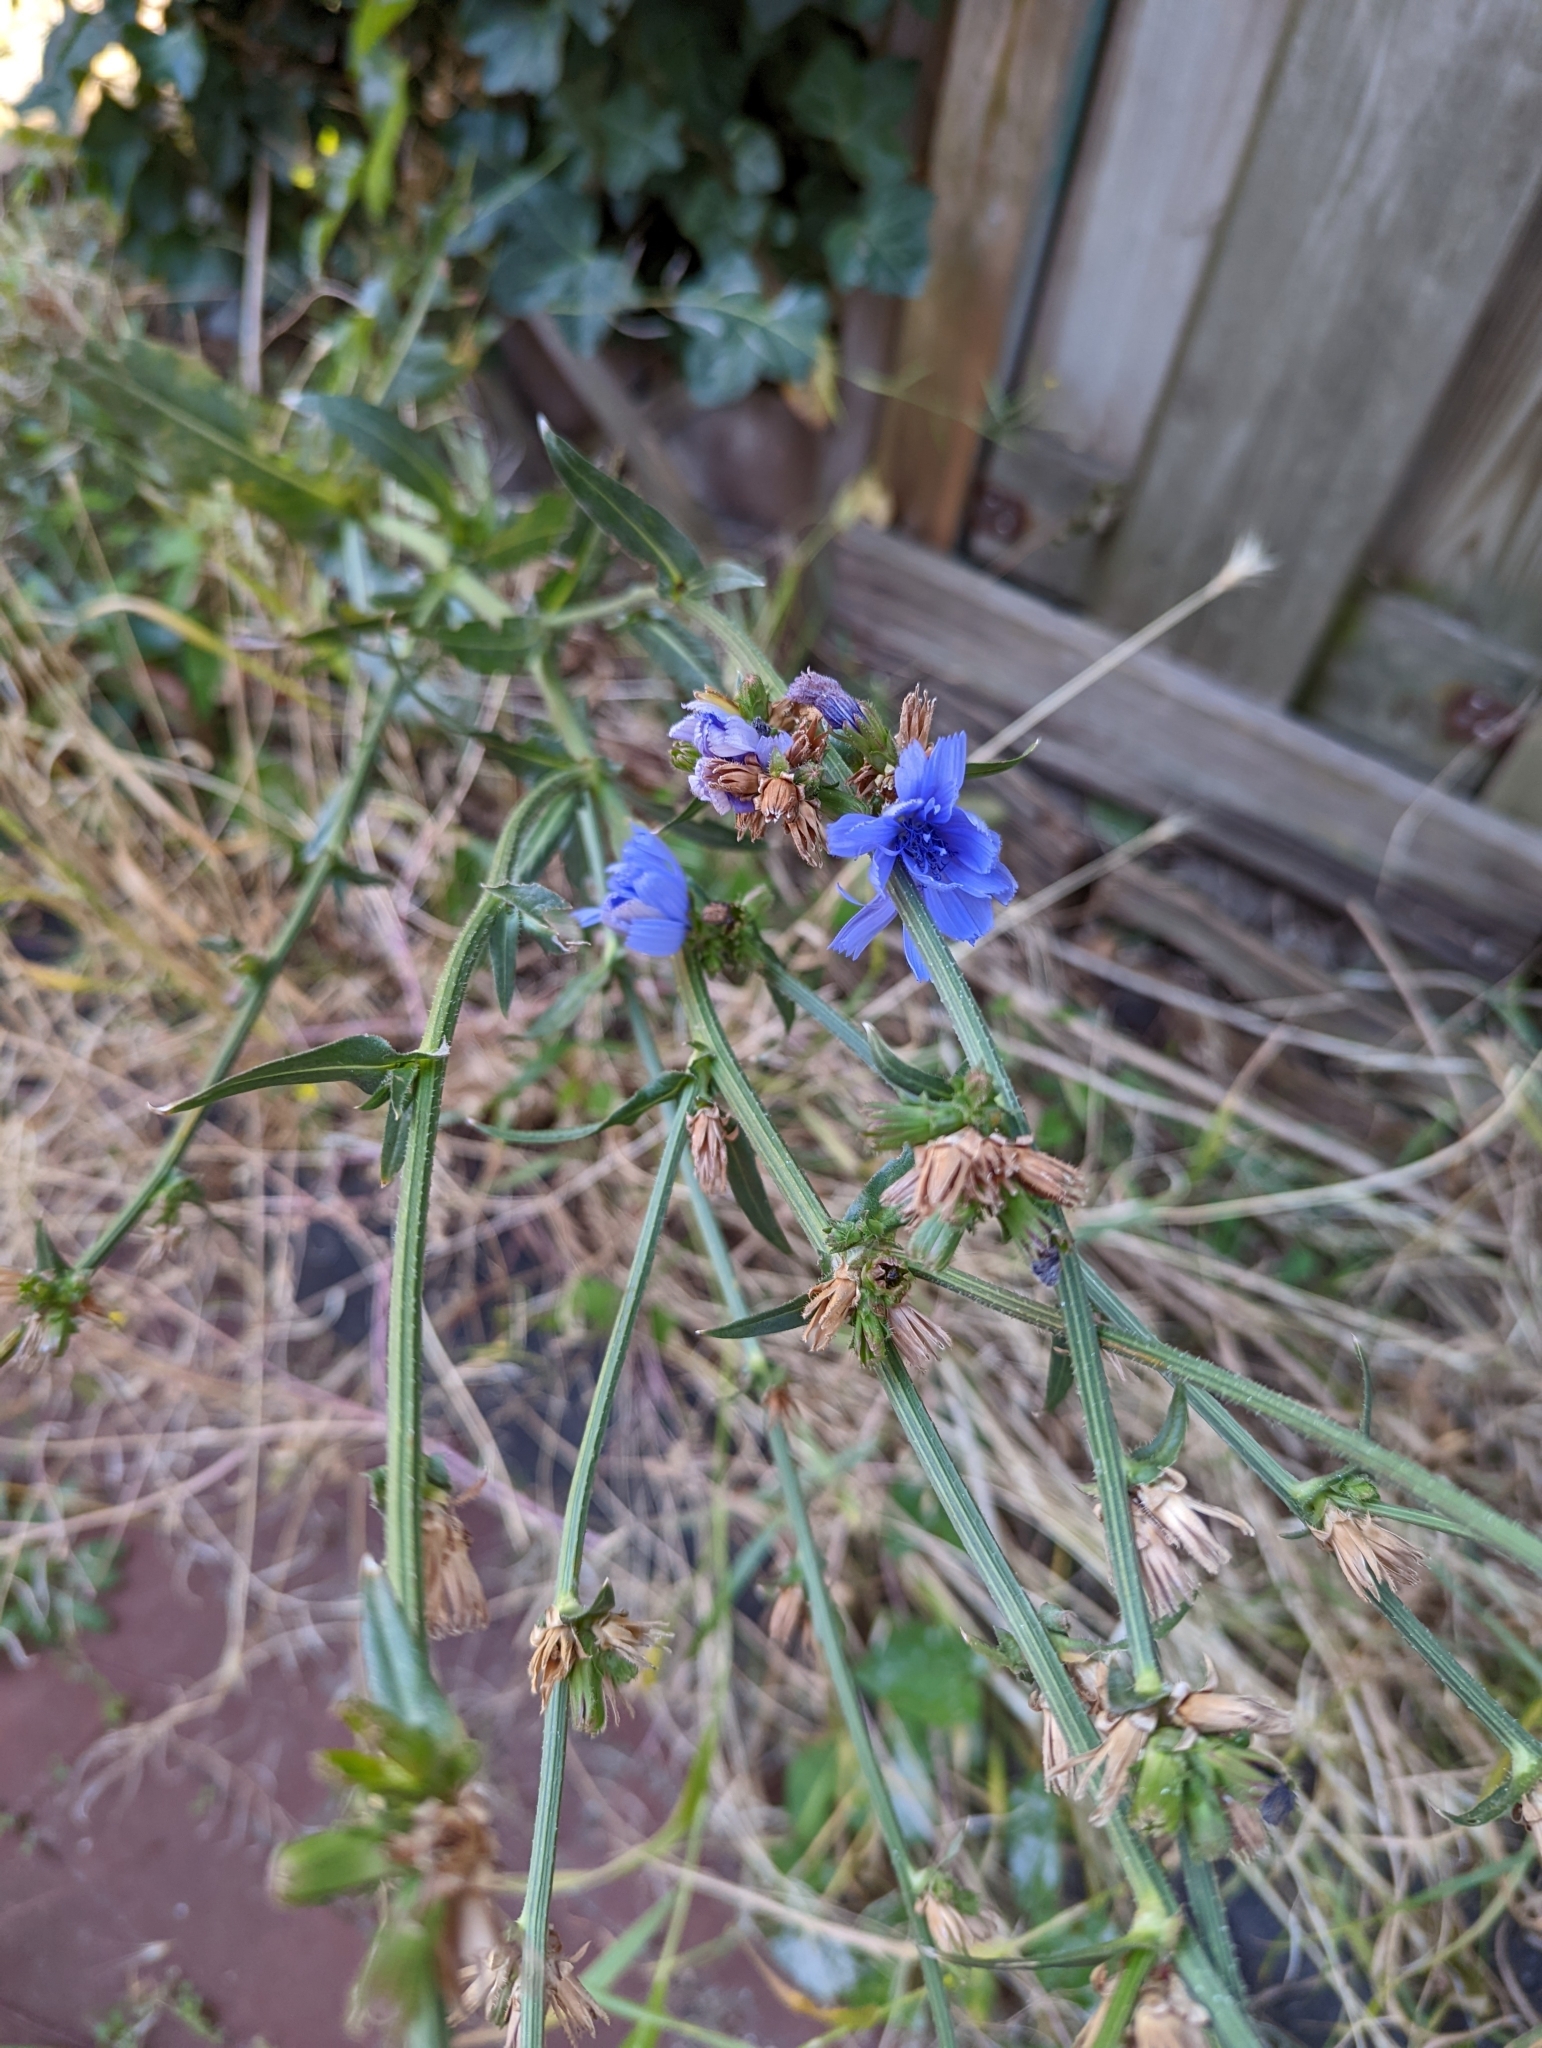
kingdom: Plantae
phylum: Tracheophyta
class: Magnoliopsida
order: Asterales
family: Asteraceae
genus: Cichorium
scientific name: Cichorium intybus
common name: Chicory
